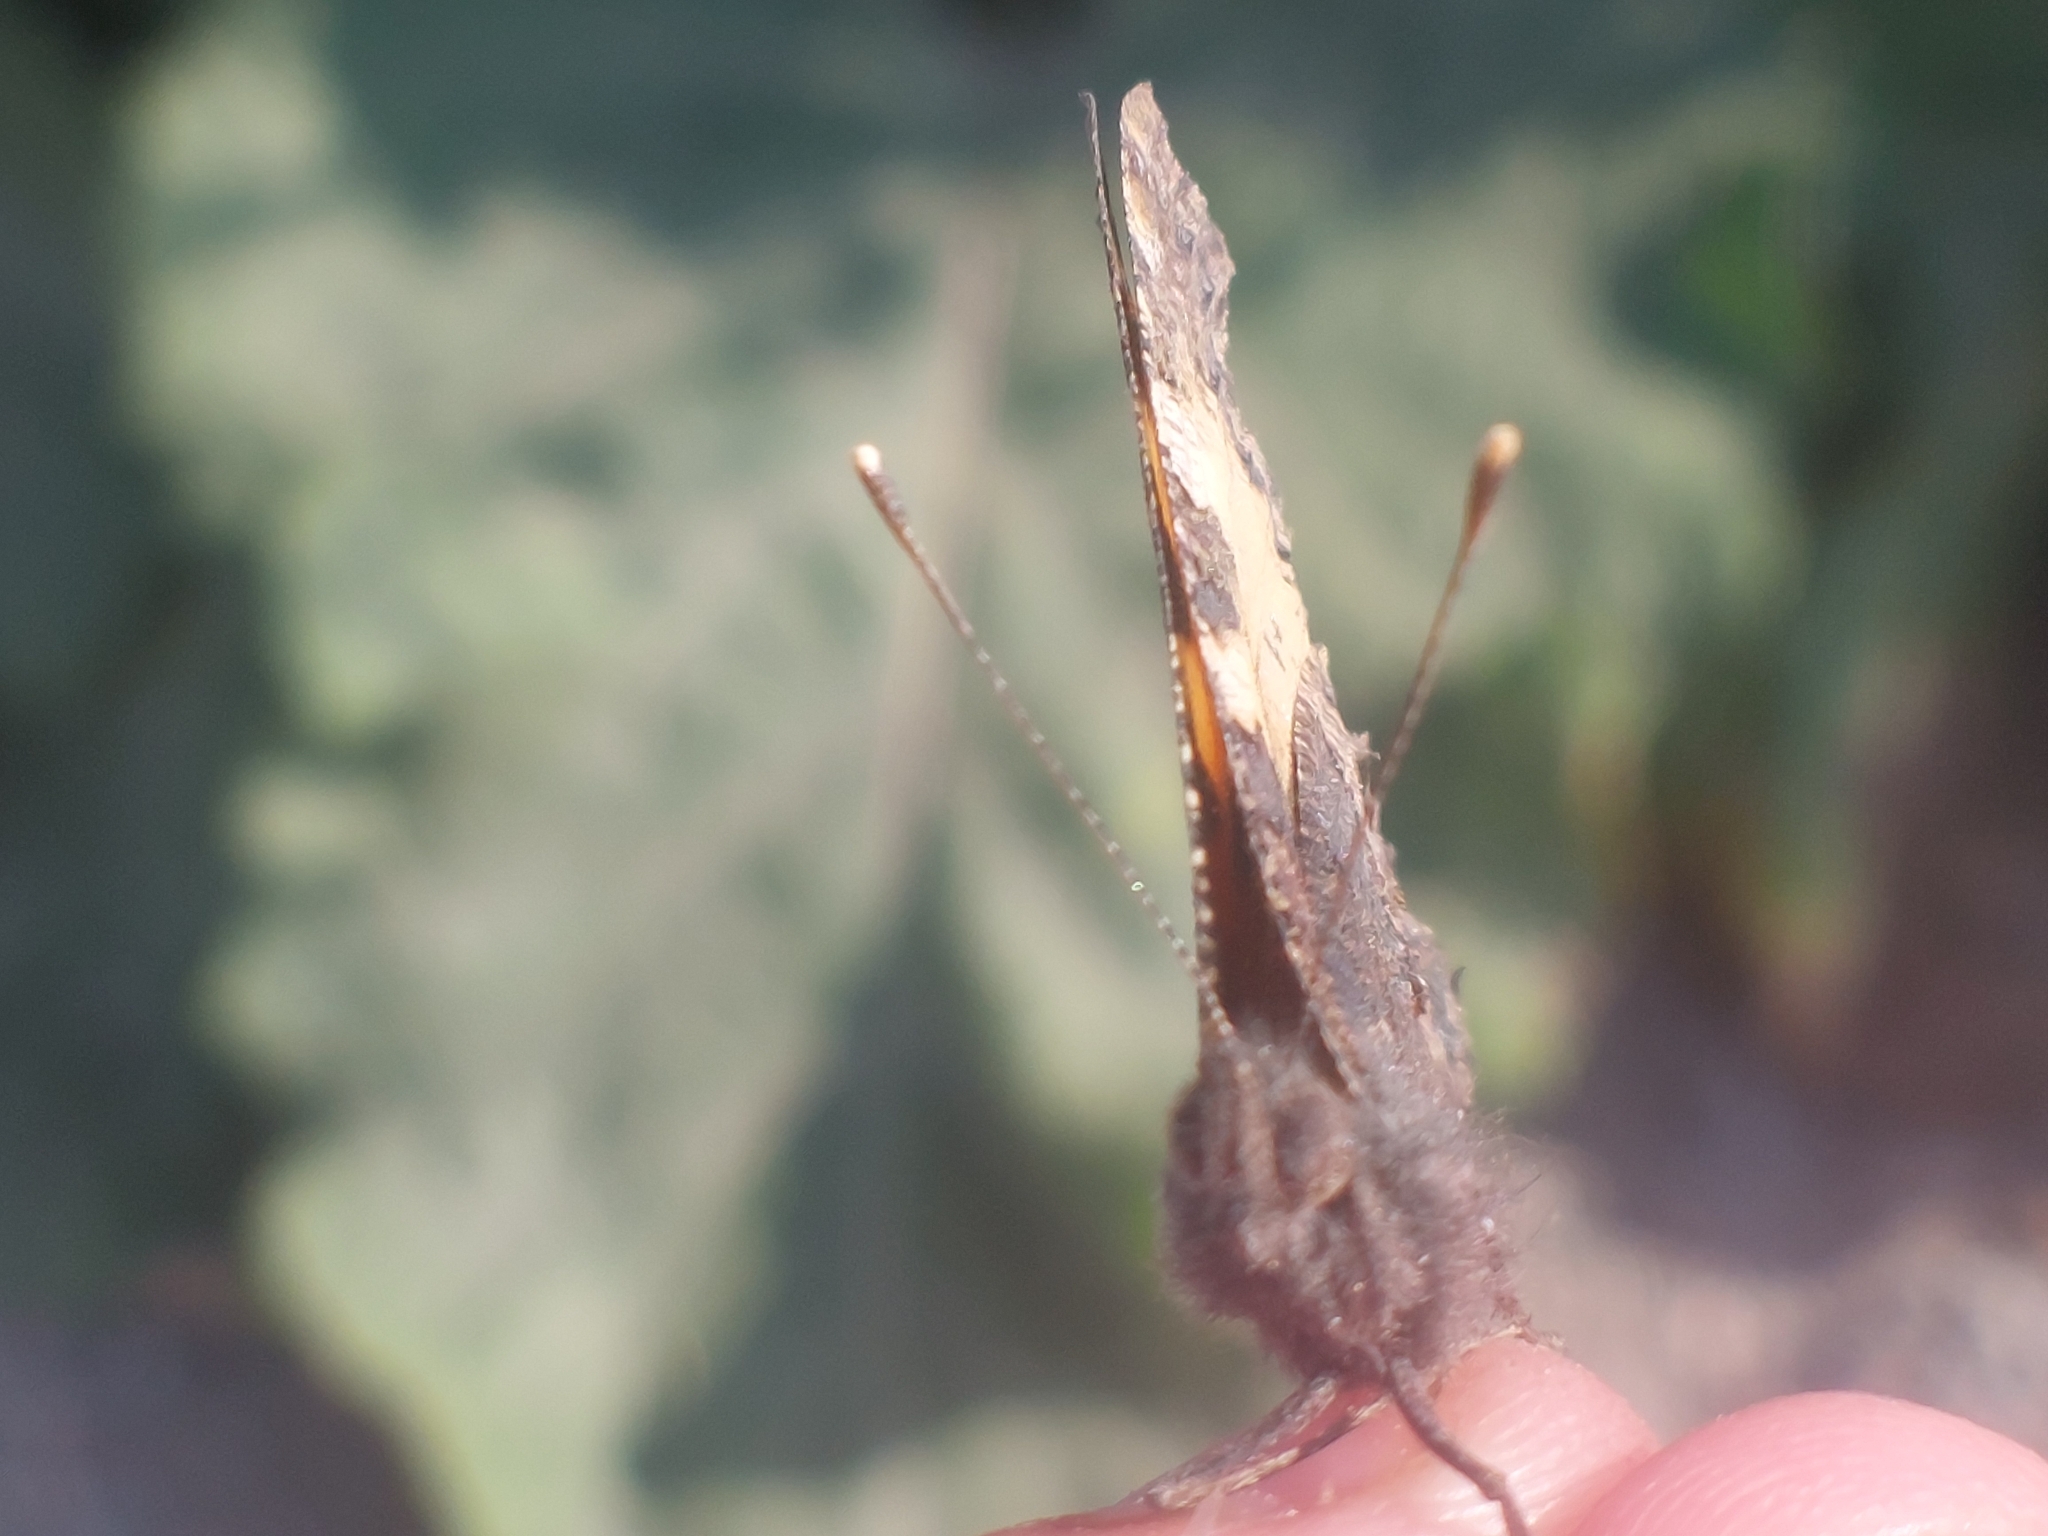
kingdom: Animalia
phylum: Arthropoda
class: Insecta
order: Lepidoptera
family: Nymphalidae
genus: Aglais
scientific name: Aglais urticae
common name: Small tortoiseshell
